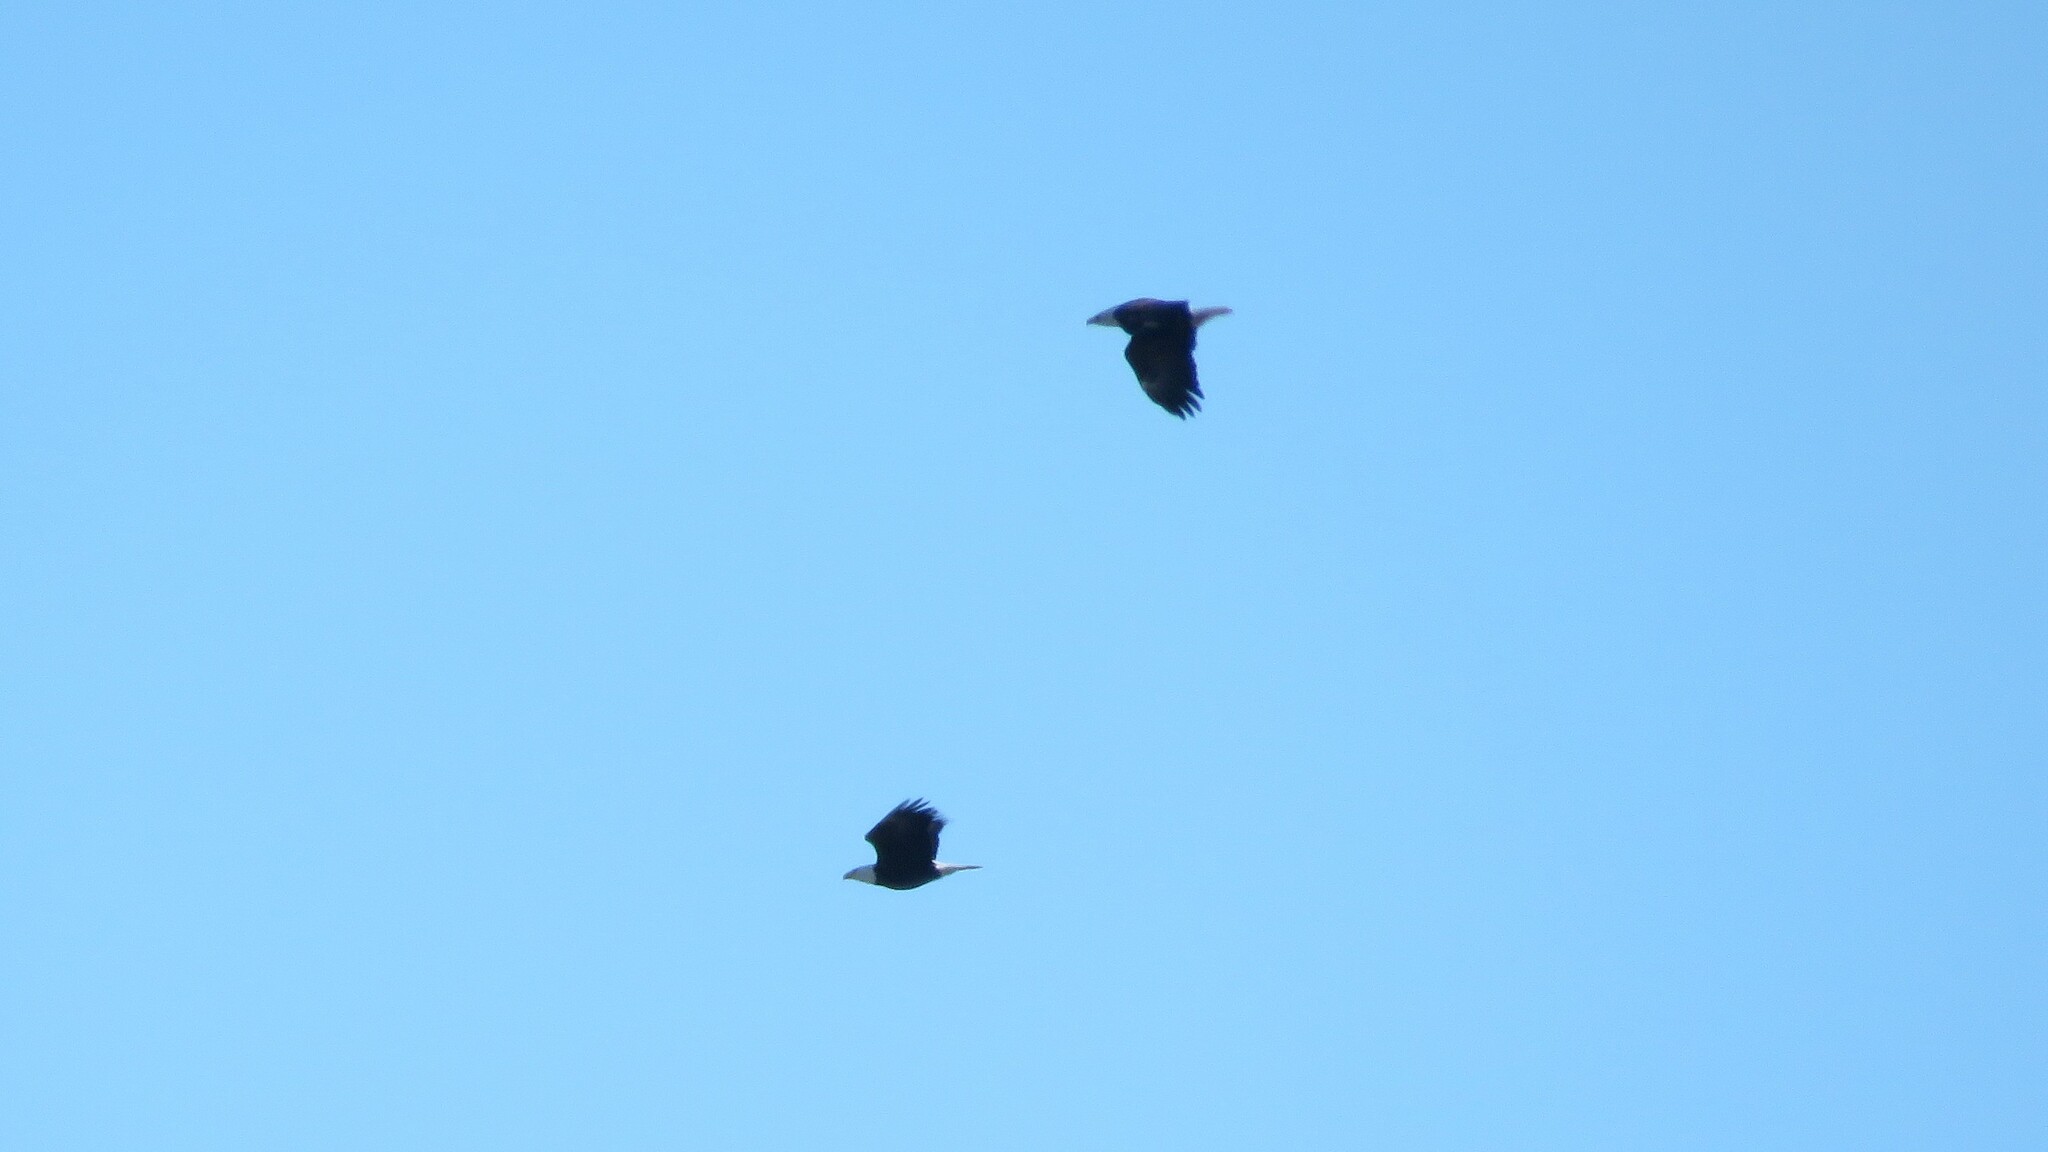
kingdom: Animalia
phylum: Chordata
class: Aves
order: Accipitriformes
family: Accipitridae
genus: Haliaeetus
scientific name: Haliaeetus leucocephalus
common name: Bald eagle
